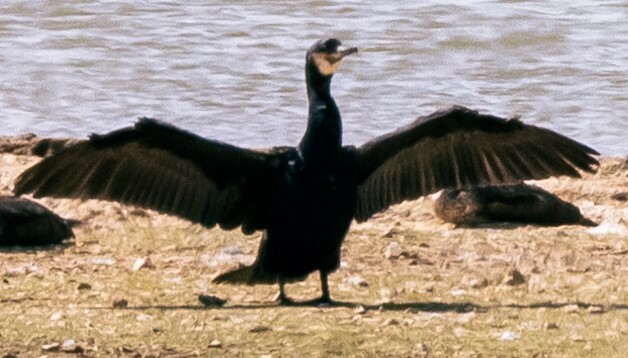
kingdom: Animalia
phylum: Chordata
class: Aves
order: Suliformes
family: Phalacrocoracidae
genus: Phalacrocorax
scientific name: Phalacrocorax carbo
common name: Great cormorant
